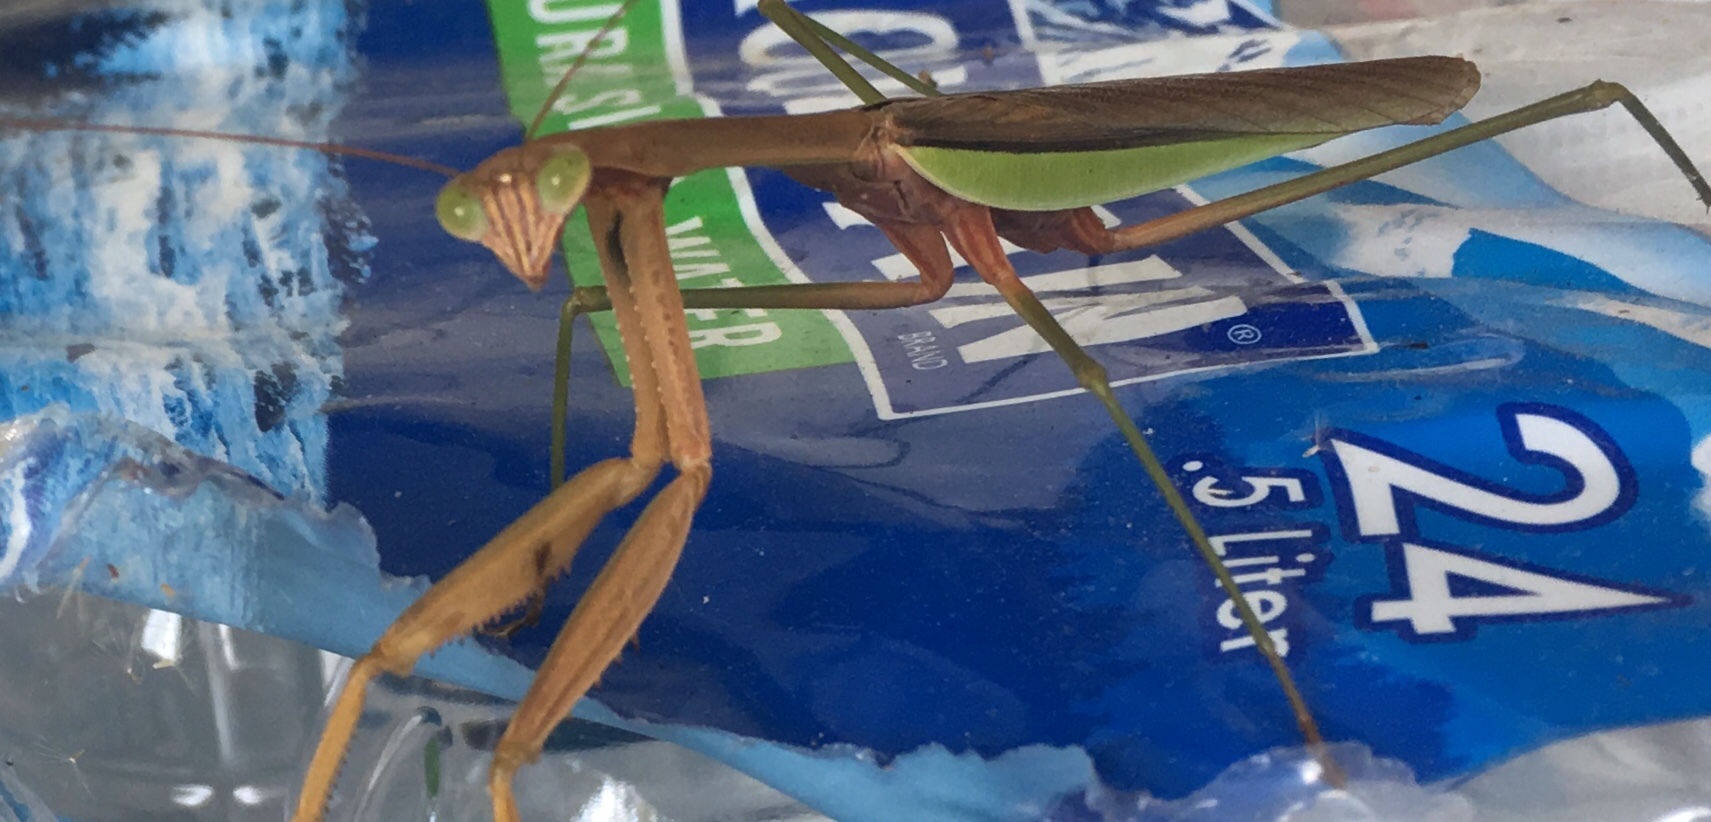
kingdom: Animalia
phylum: Arthropoda
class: Insecta
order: Mantodea
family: Mantidae
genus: Tenodera
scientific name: Tenodera sinensis
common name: Chinese mantis
